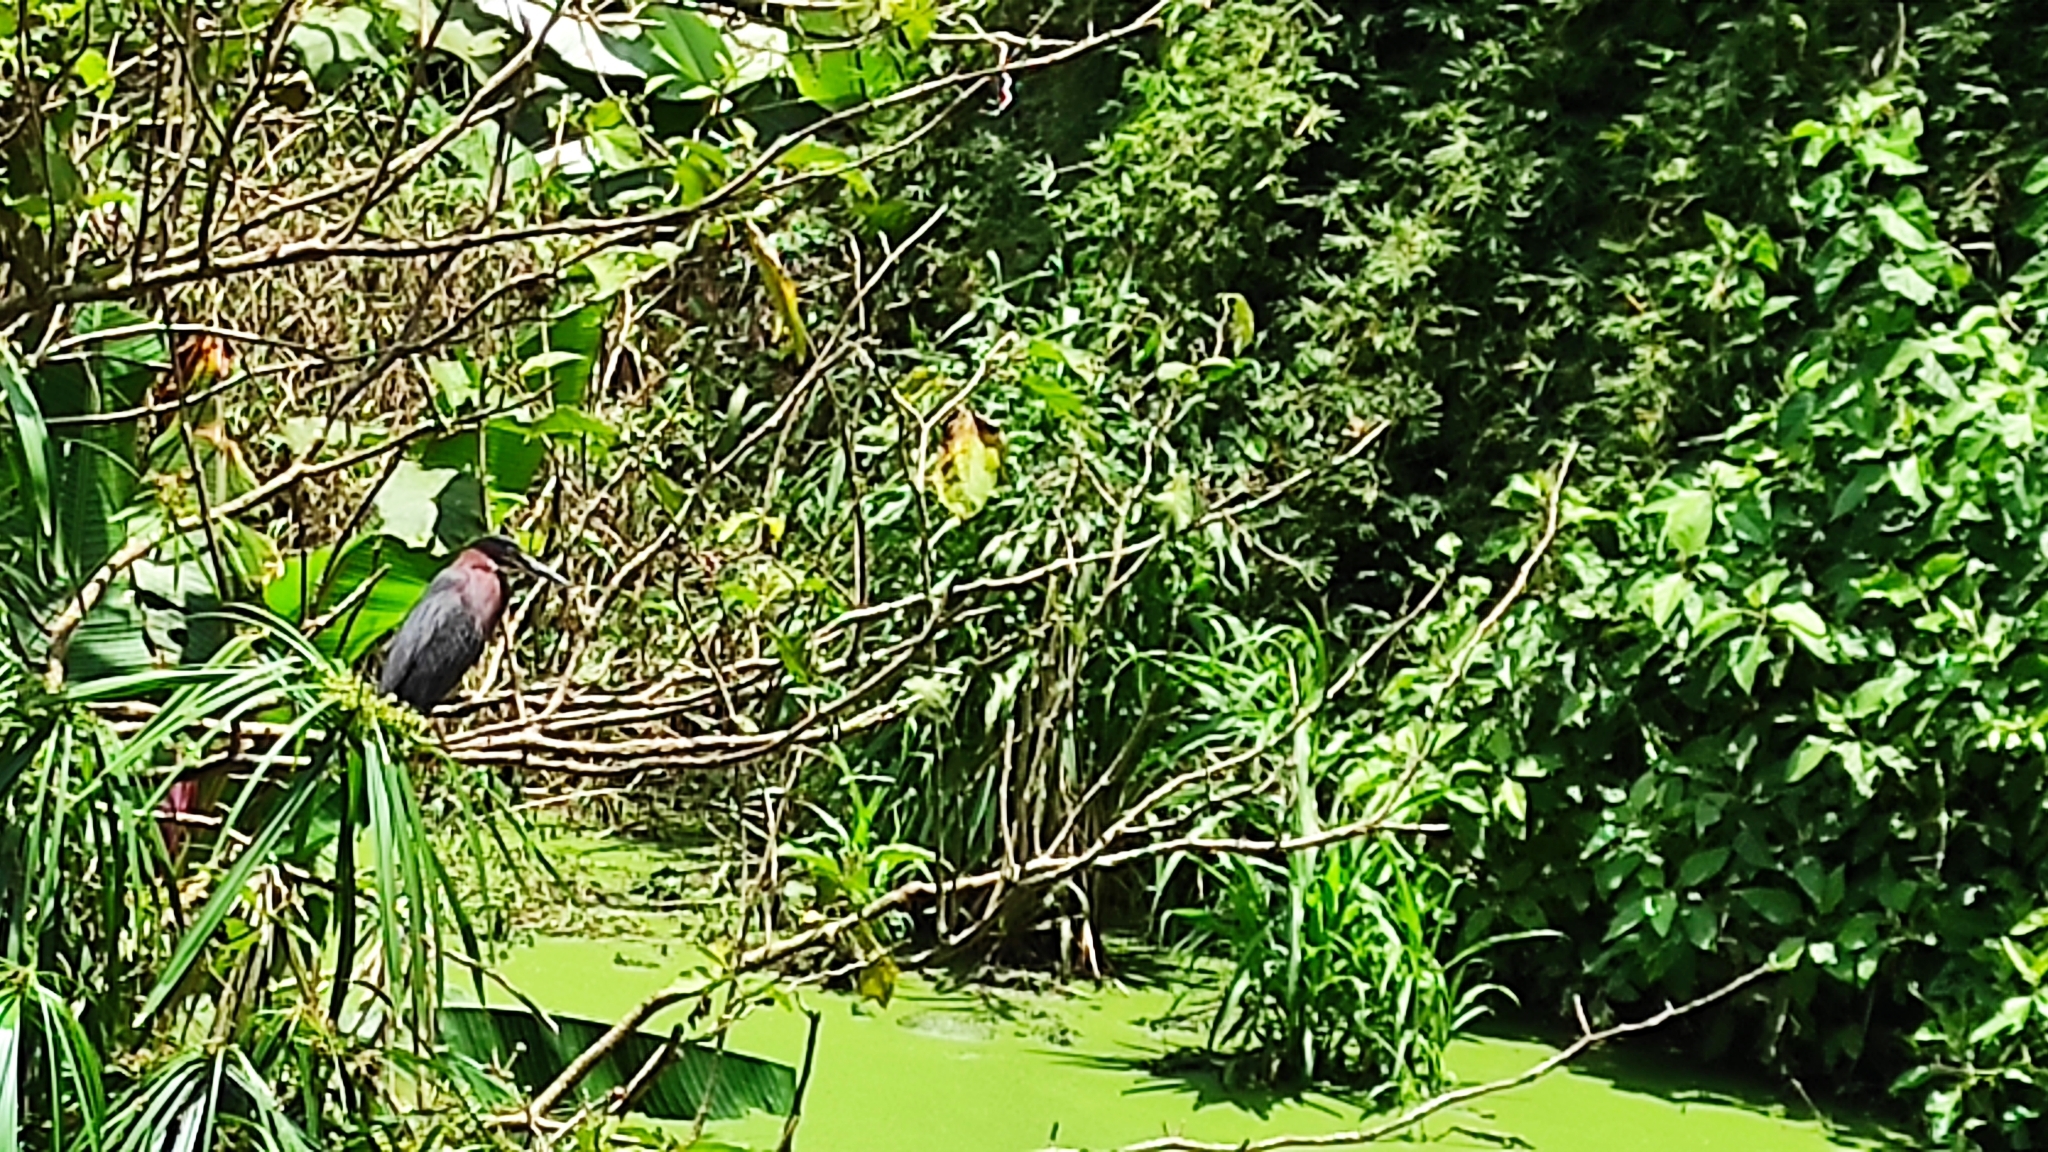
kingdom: Animalia
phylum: Chordata
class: Aves
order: Pelecaniformes
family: Ardeidae
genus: Butorides
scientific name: Butorides virescens
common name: Green heron
